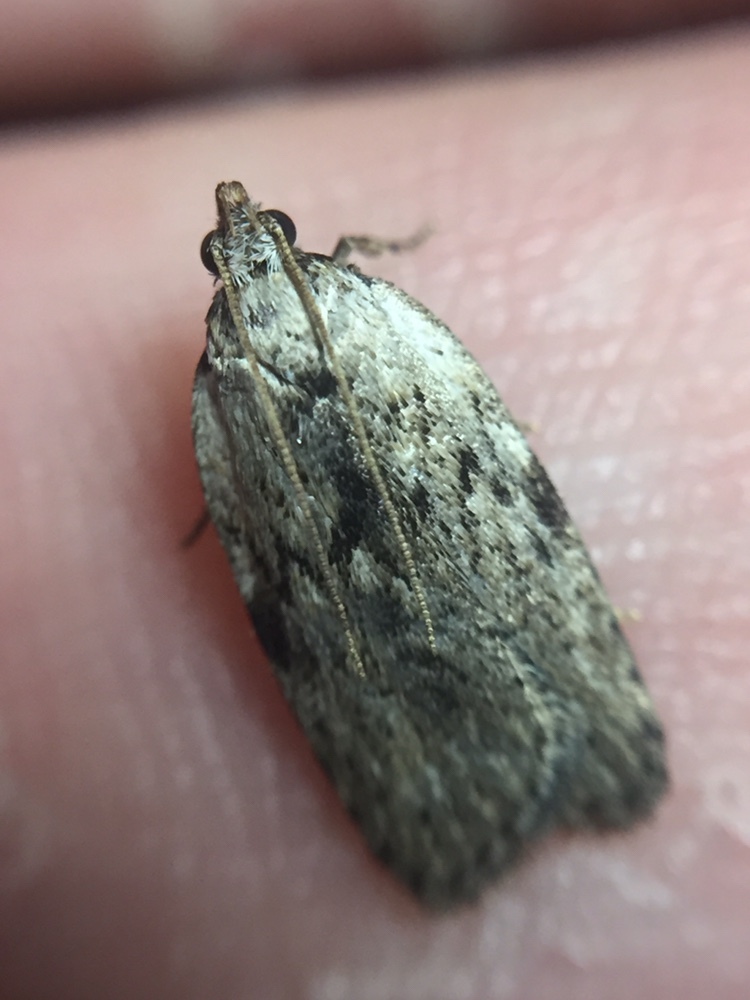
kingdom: Animalia
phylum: Arthropoda
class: Insecta
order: Lepidoptera
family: Depressariidae
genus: Phaeosaces
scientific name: Phaeosaces compsotypa
